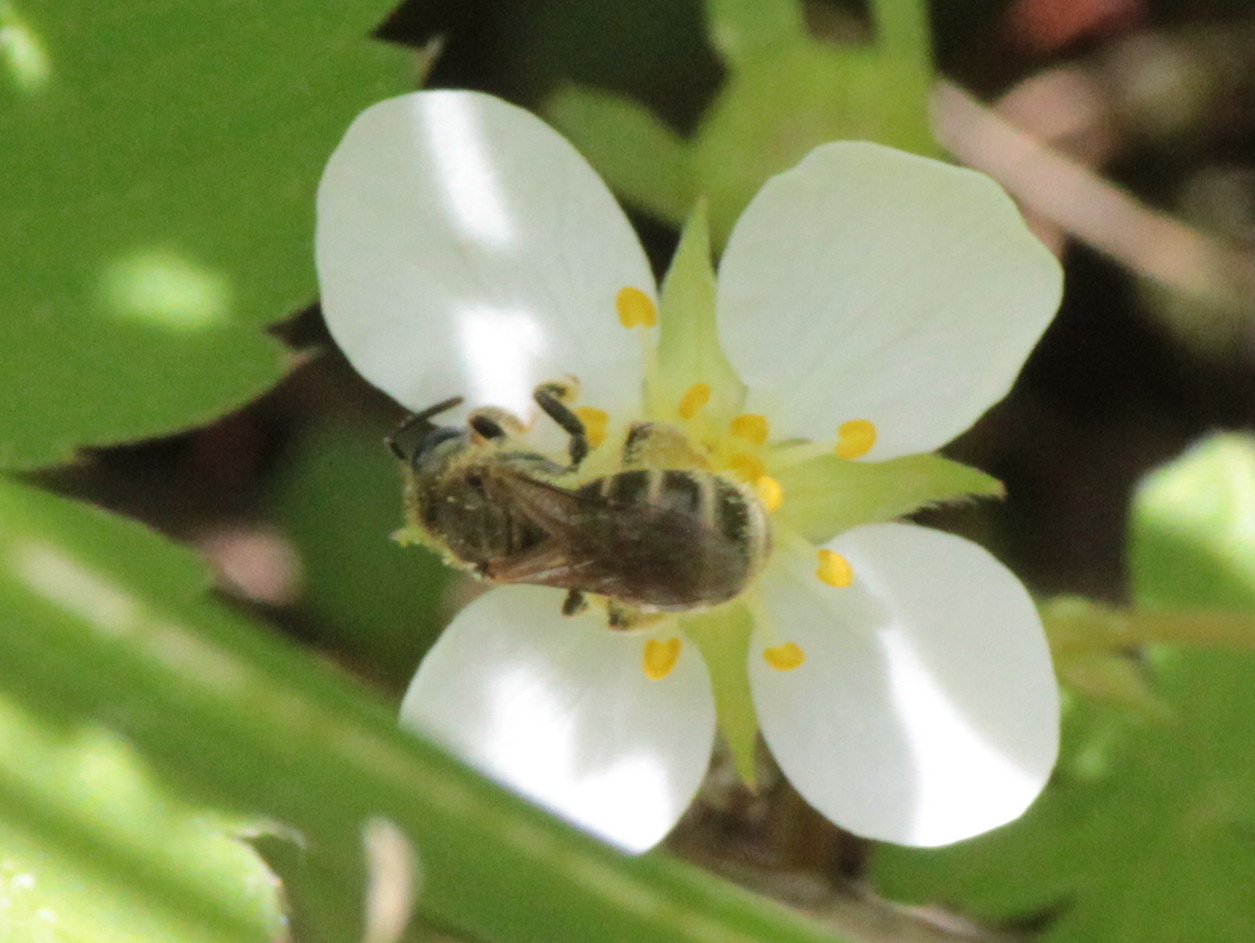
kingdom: Animalia
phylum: Arthropoda
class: Insecta
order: Hymenoptera
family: Halictidae
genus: Halictus
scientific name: Halictus confusus
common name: Southern bronze furrow bee
